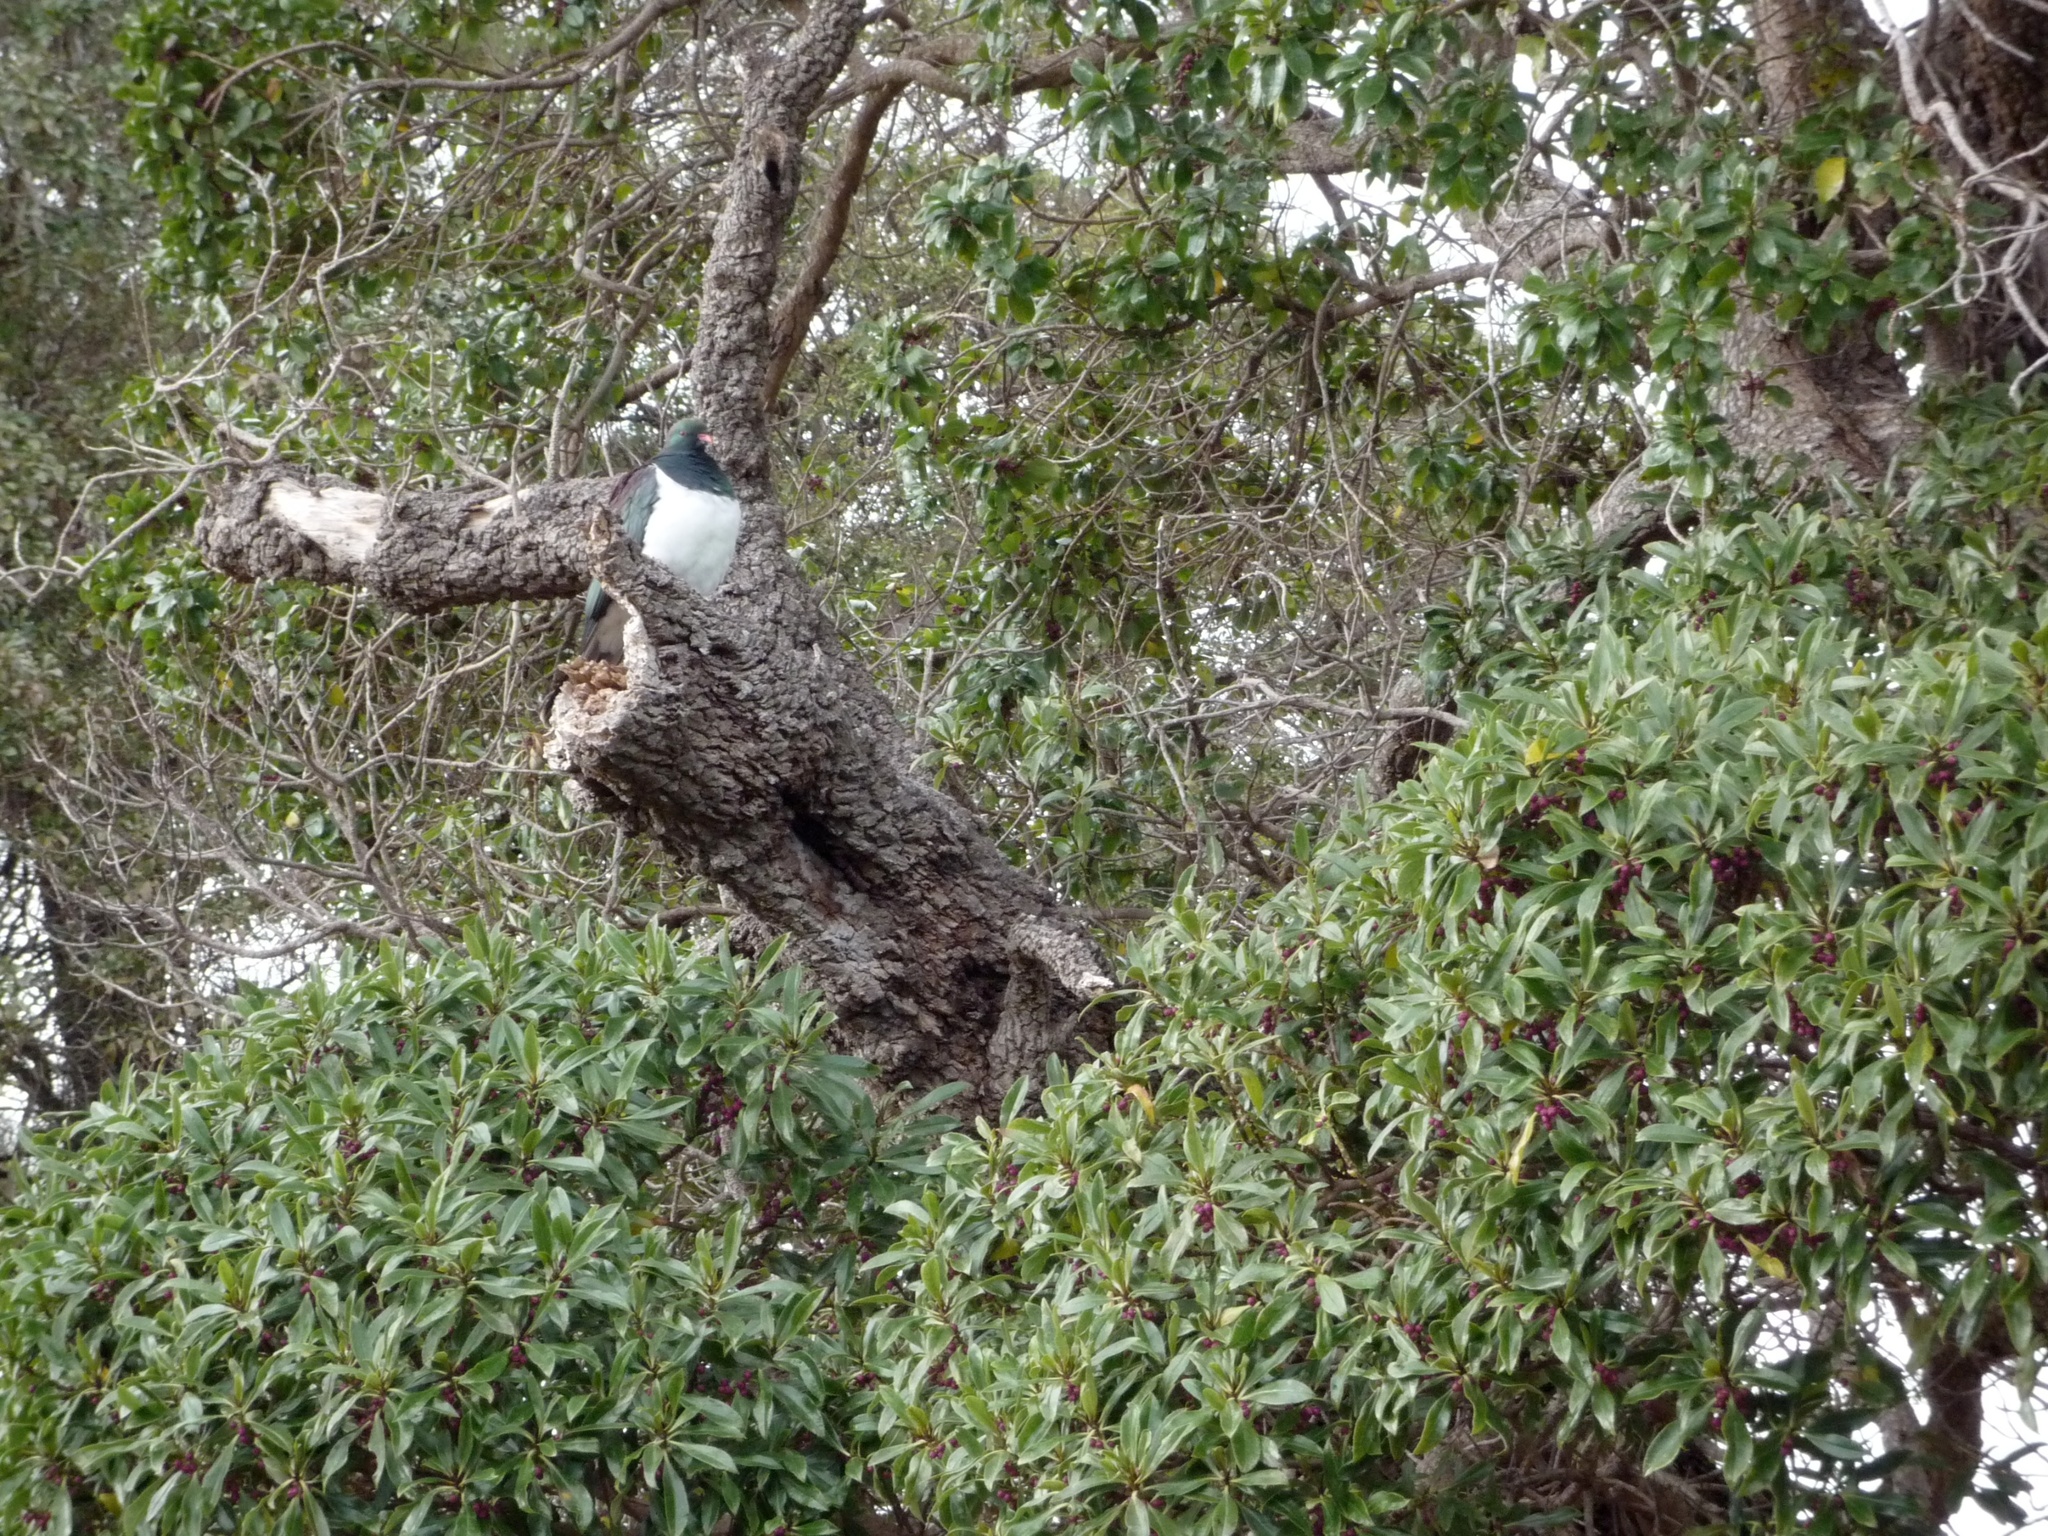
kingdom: Animalia
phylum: Chordata
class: Aves
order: Columbiformes
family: Columbidae
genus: Hemiphaga
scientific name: Hemiphaga novaeseelandiae
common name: New zealand pigeon
